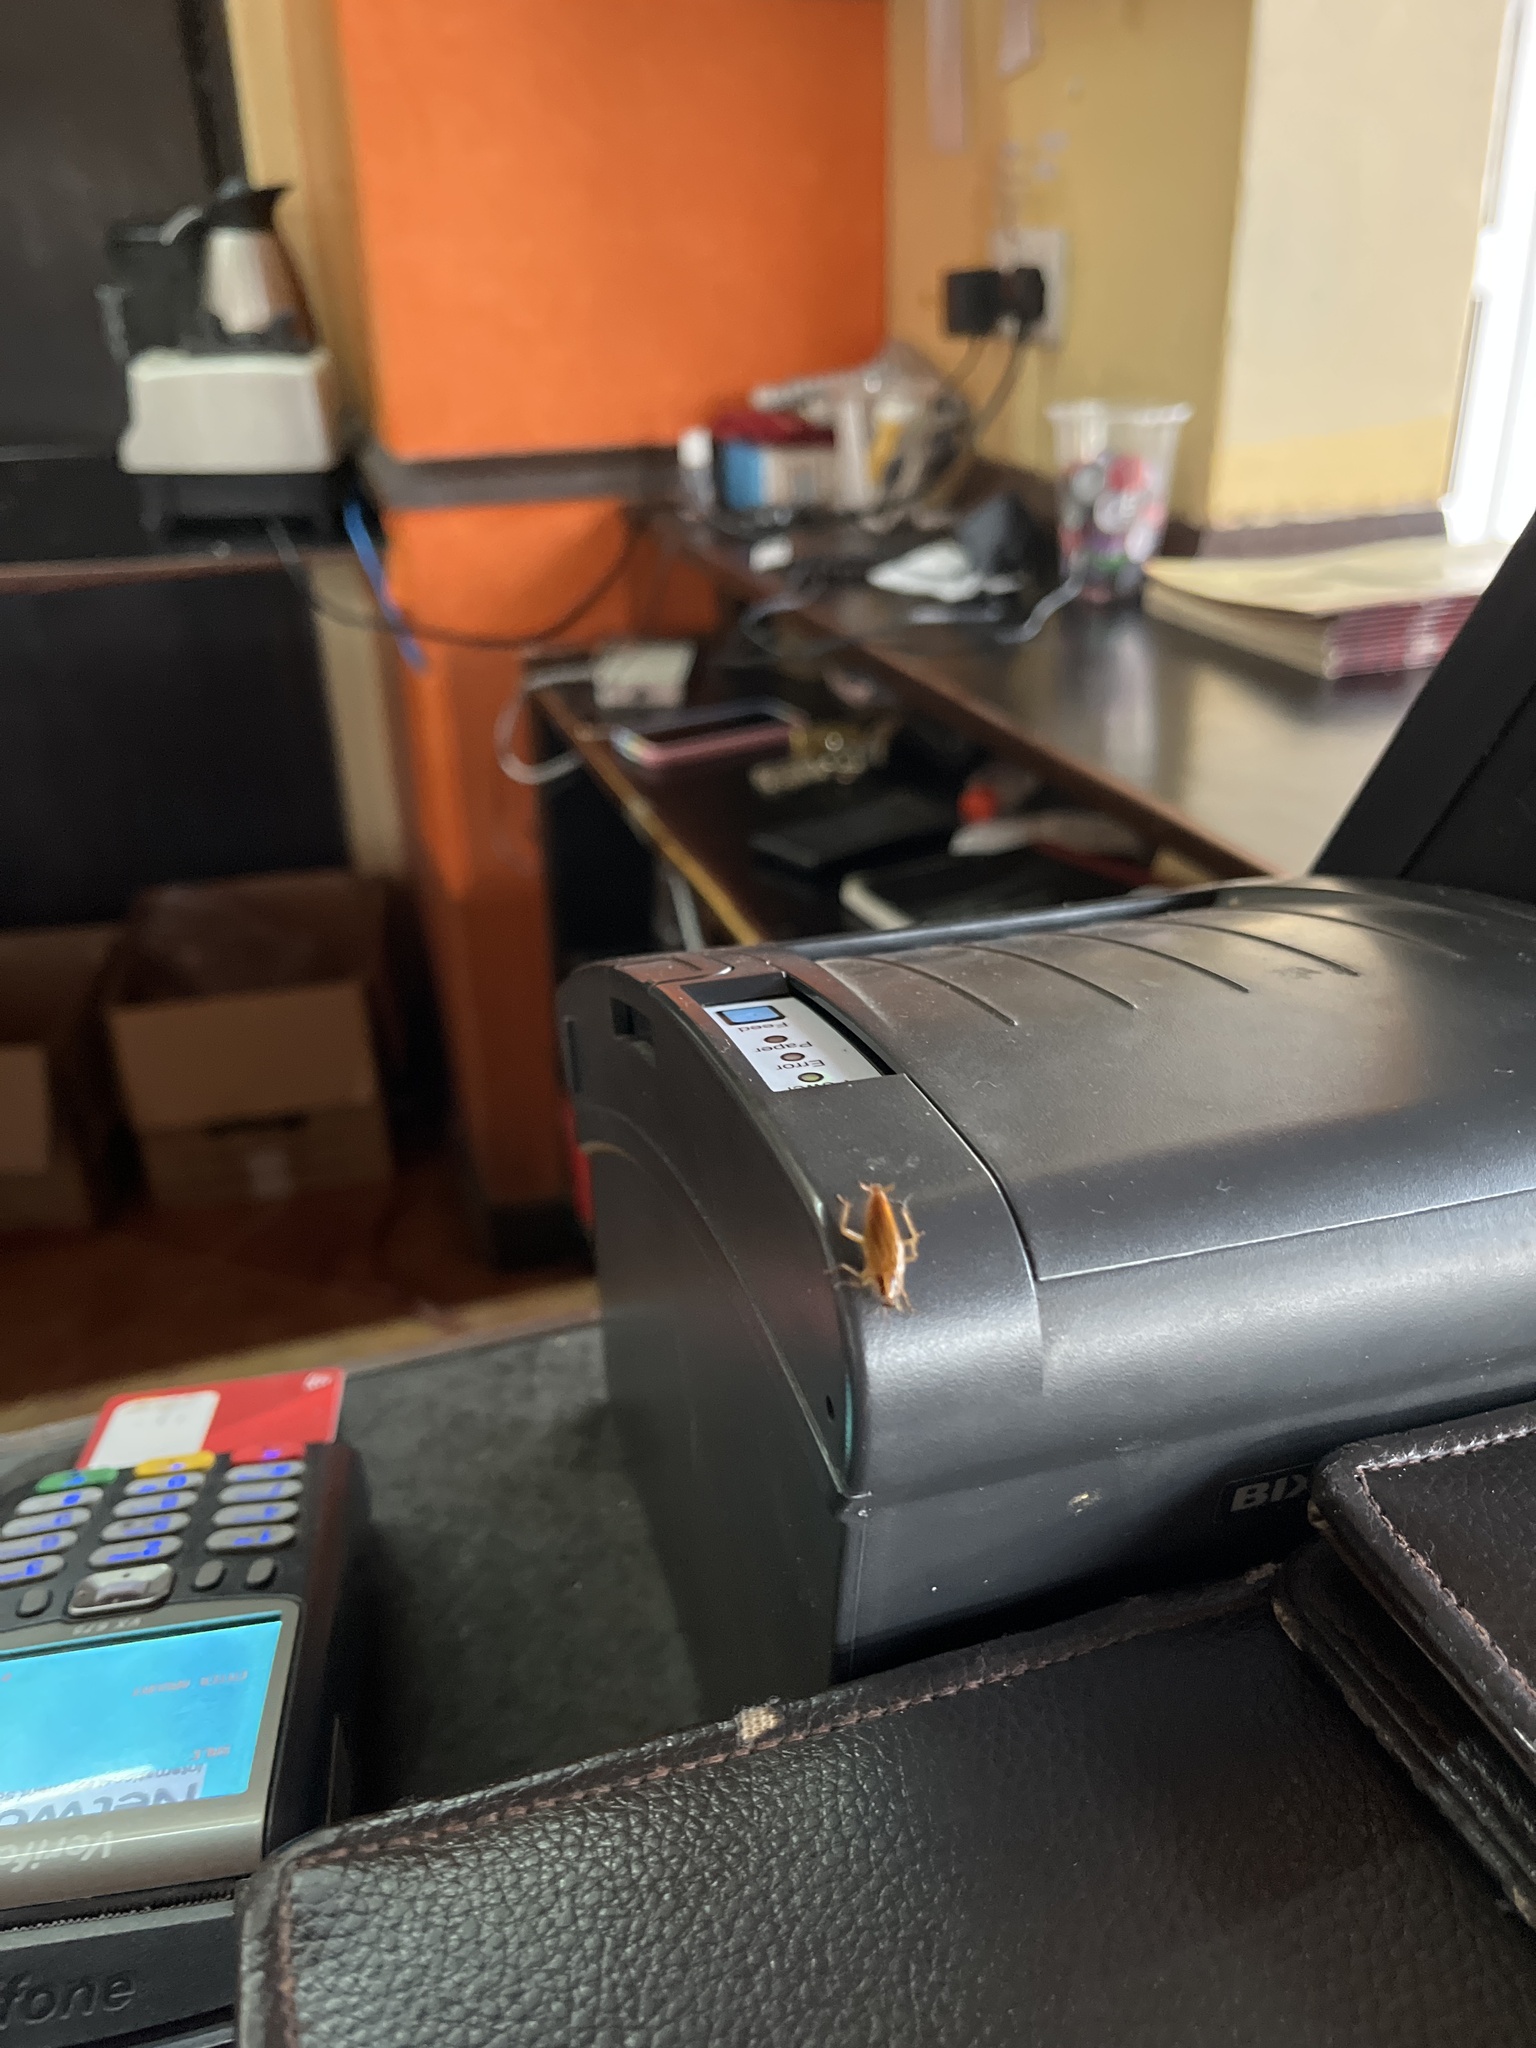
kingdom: Animalia
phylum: Arthropoda
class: Insecta
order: Blattodea
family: Ectobiidae
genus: Blattella
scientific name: Blattella germanica
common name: German cockroach
